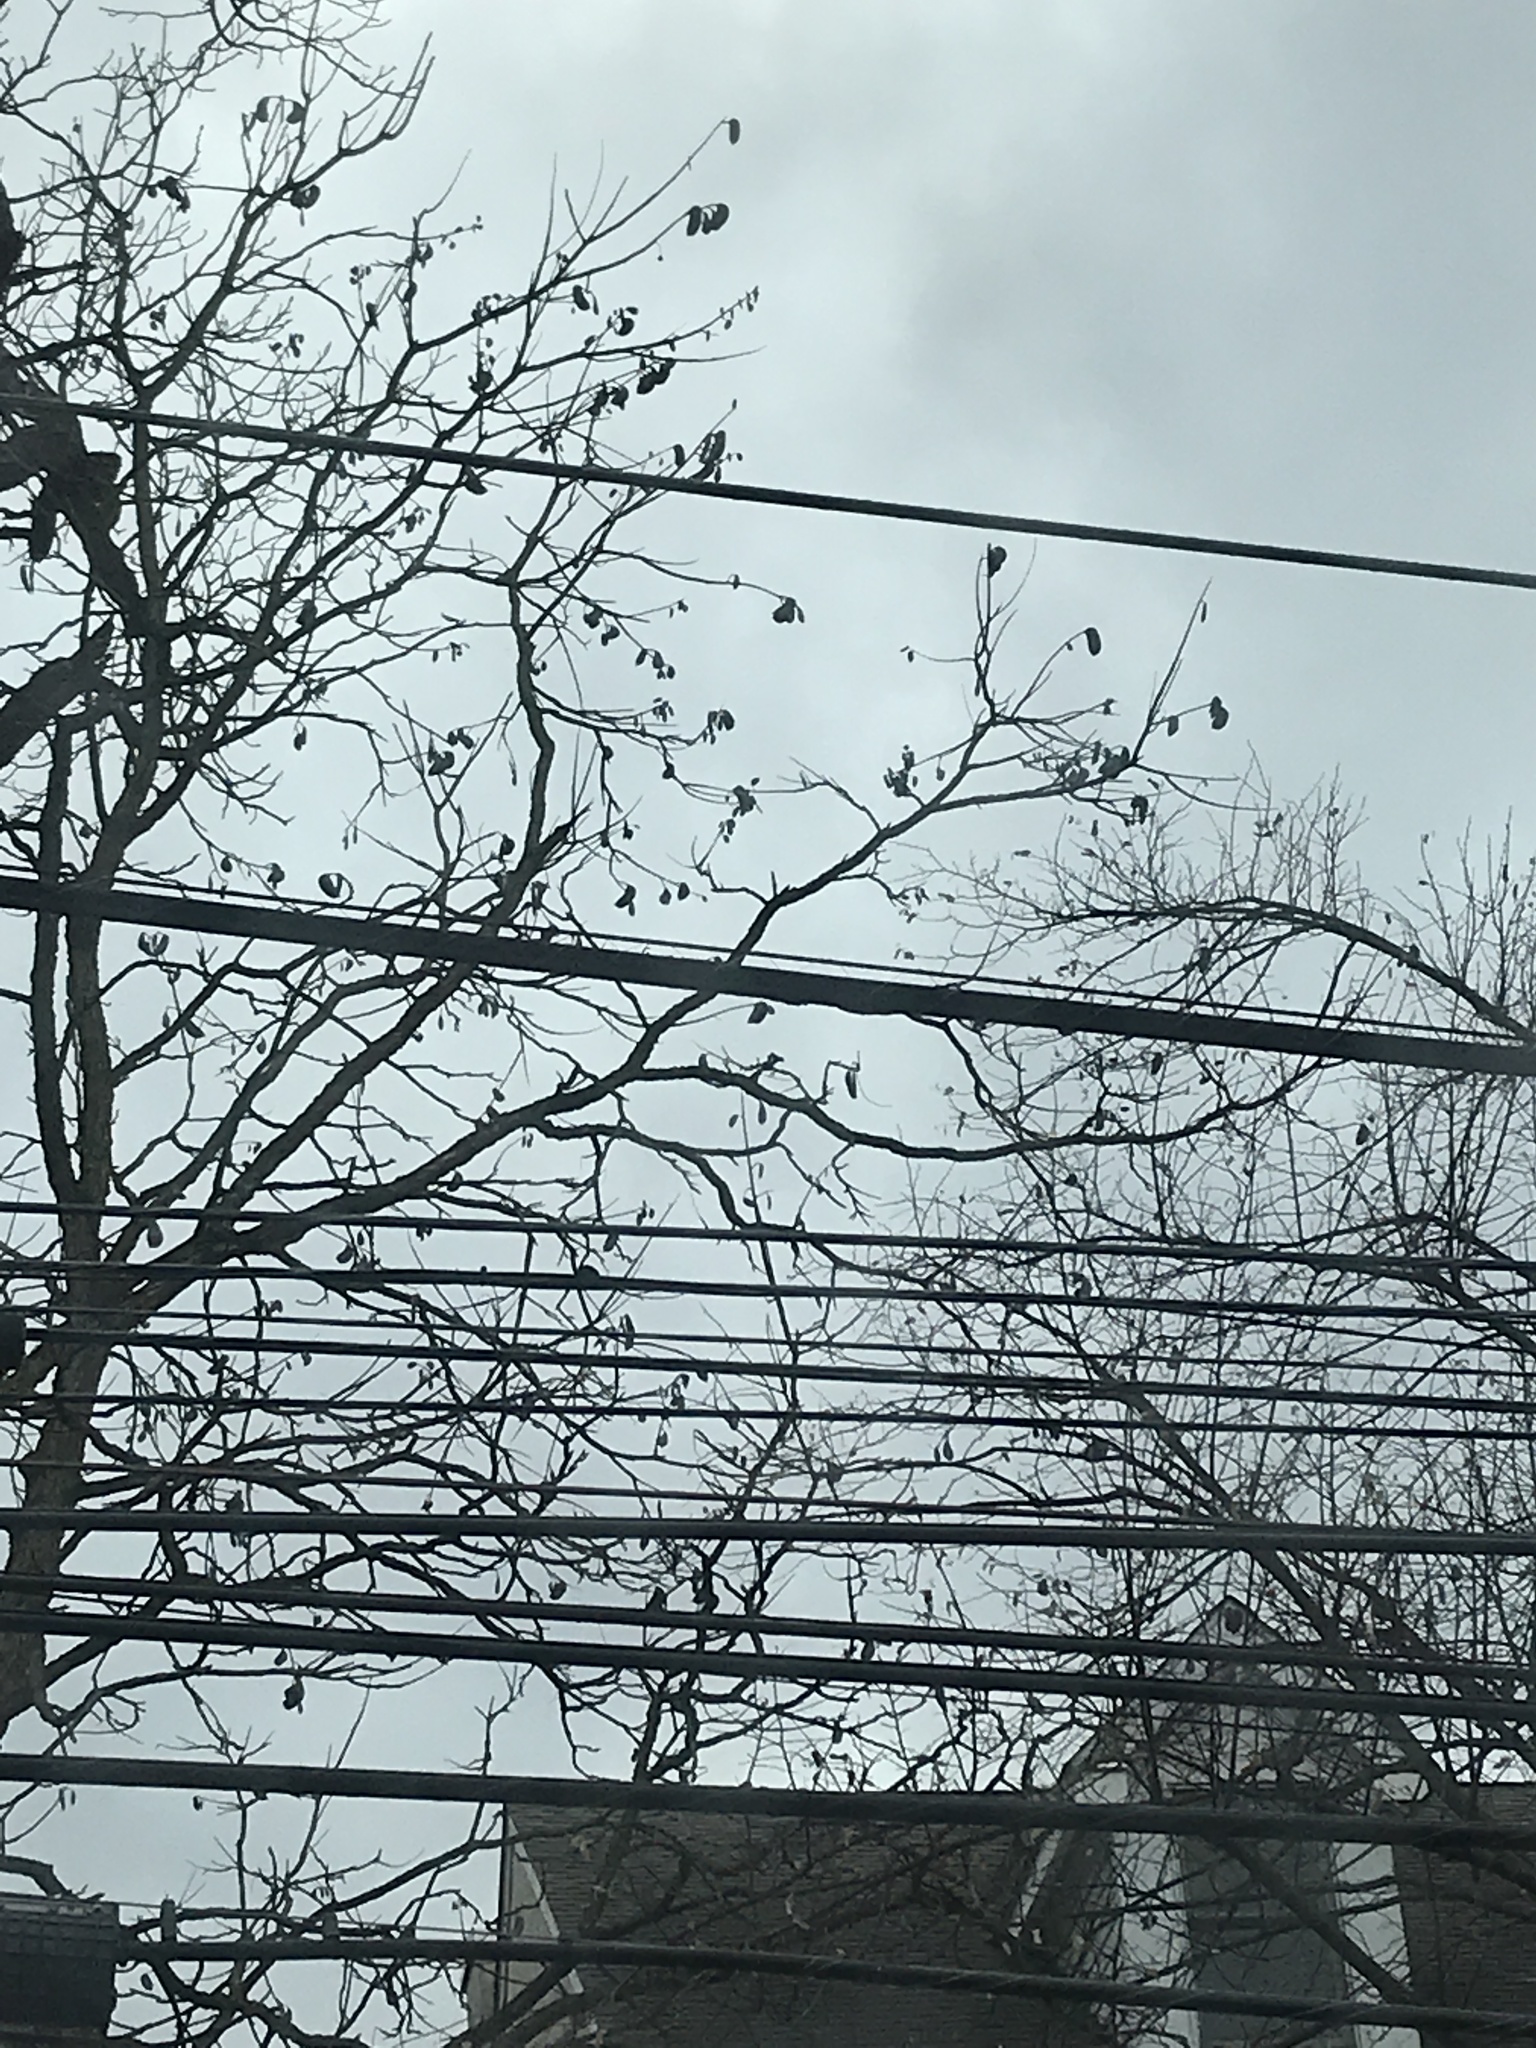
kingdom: Plantae
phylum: Tracheophyta
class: Magnoliopsida
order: Fabales
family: Fabaceae
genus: Gymnocladus
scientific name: Gymnocladus dioicus
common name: Kentucky coffee-tree
